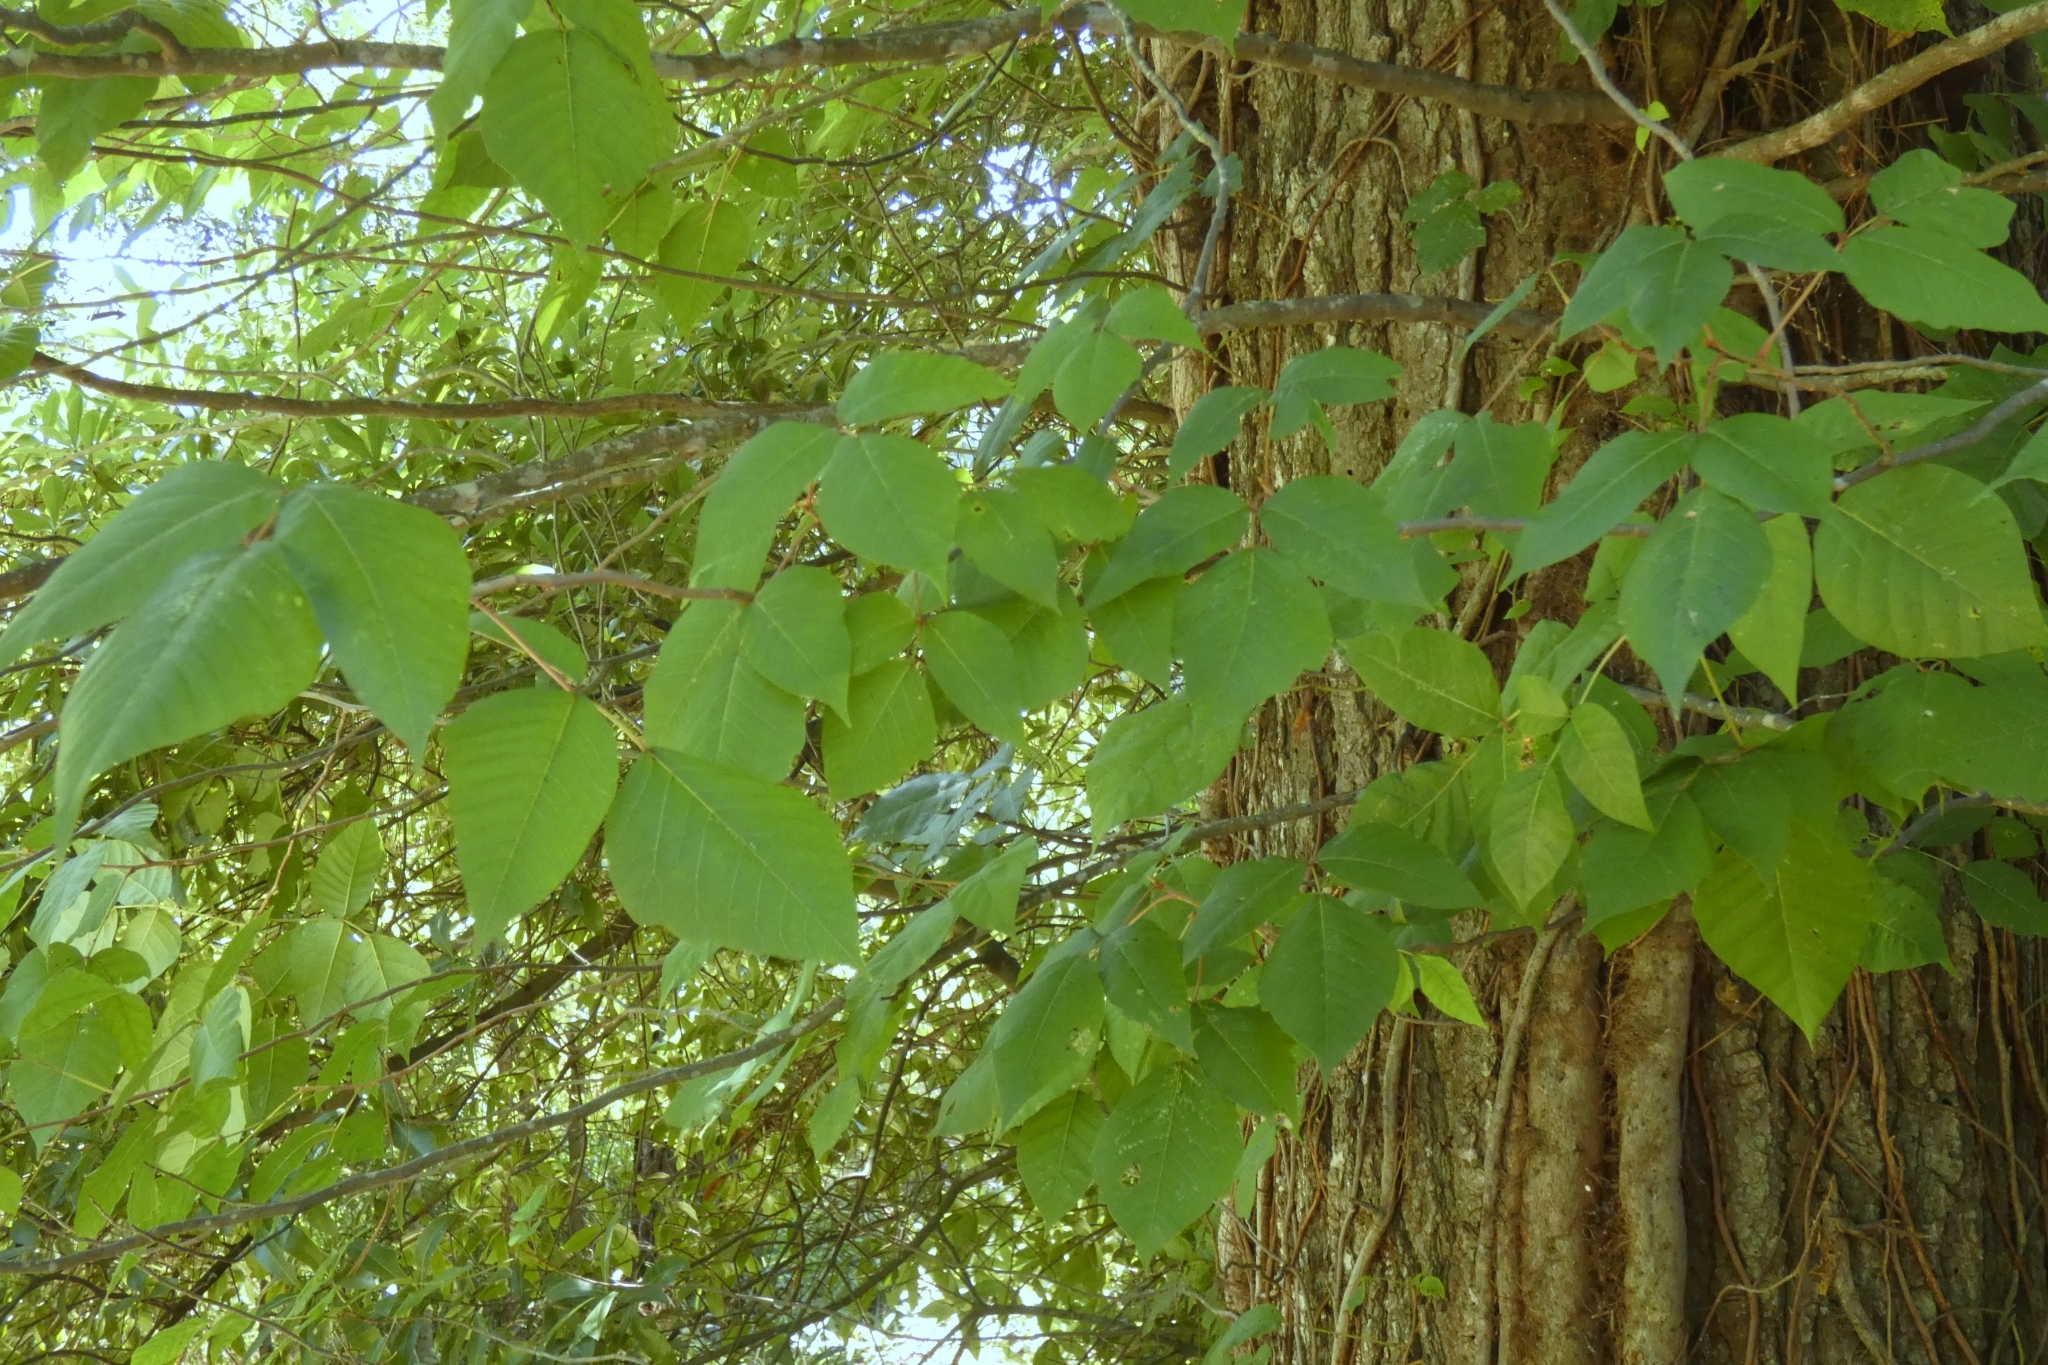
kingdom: Plantae
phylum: Tracheophyta
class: Magnoliopsida
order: Sapindales
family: Anacardiaceae
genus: Toxicodendron
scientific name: Toxicodendron radicans
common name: Poison ivy
